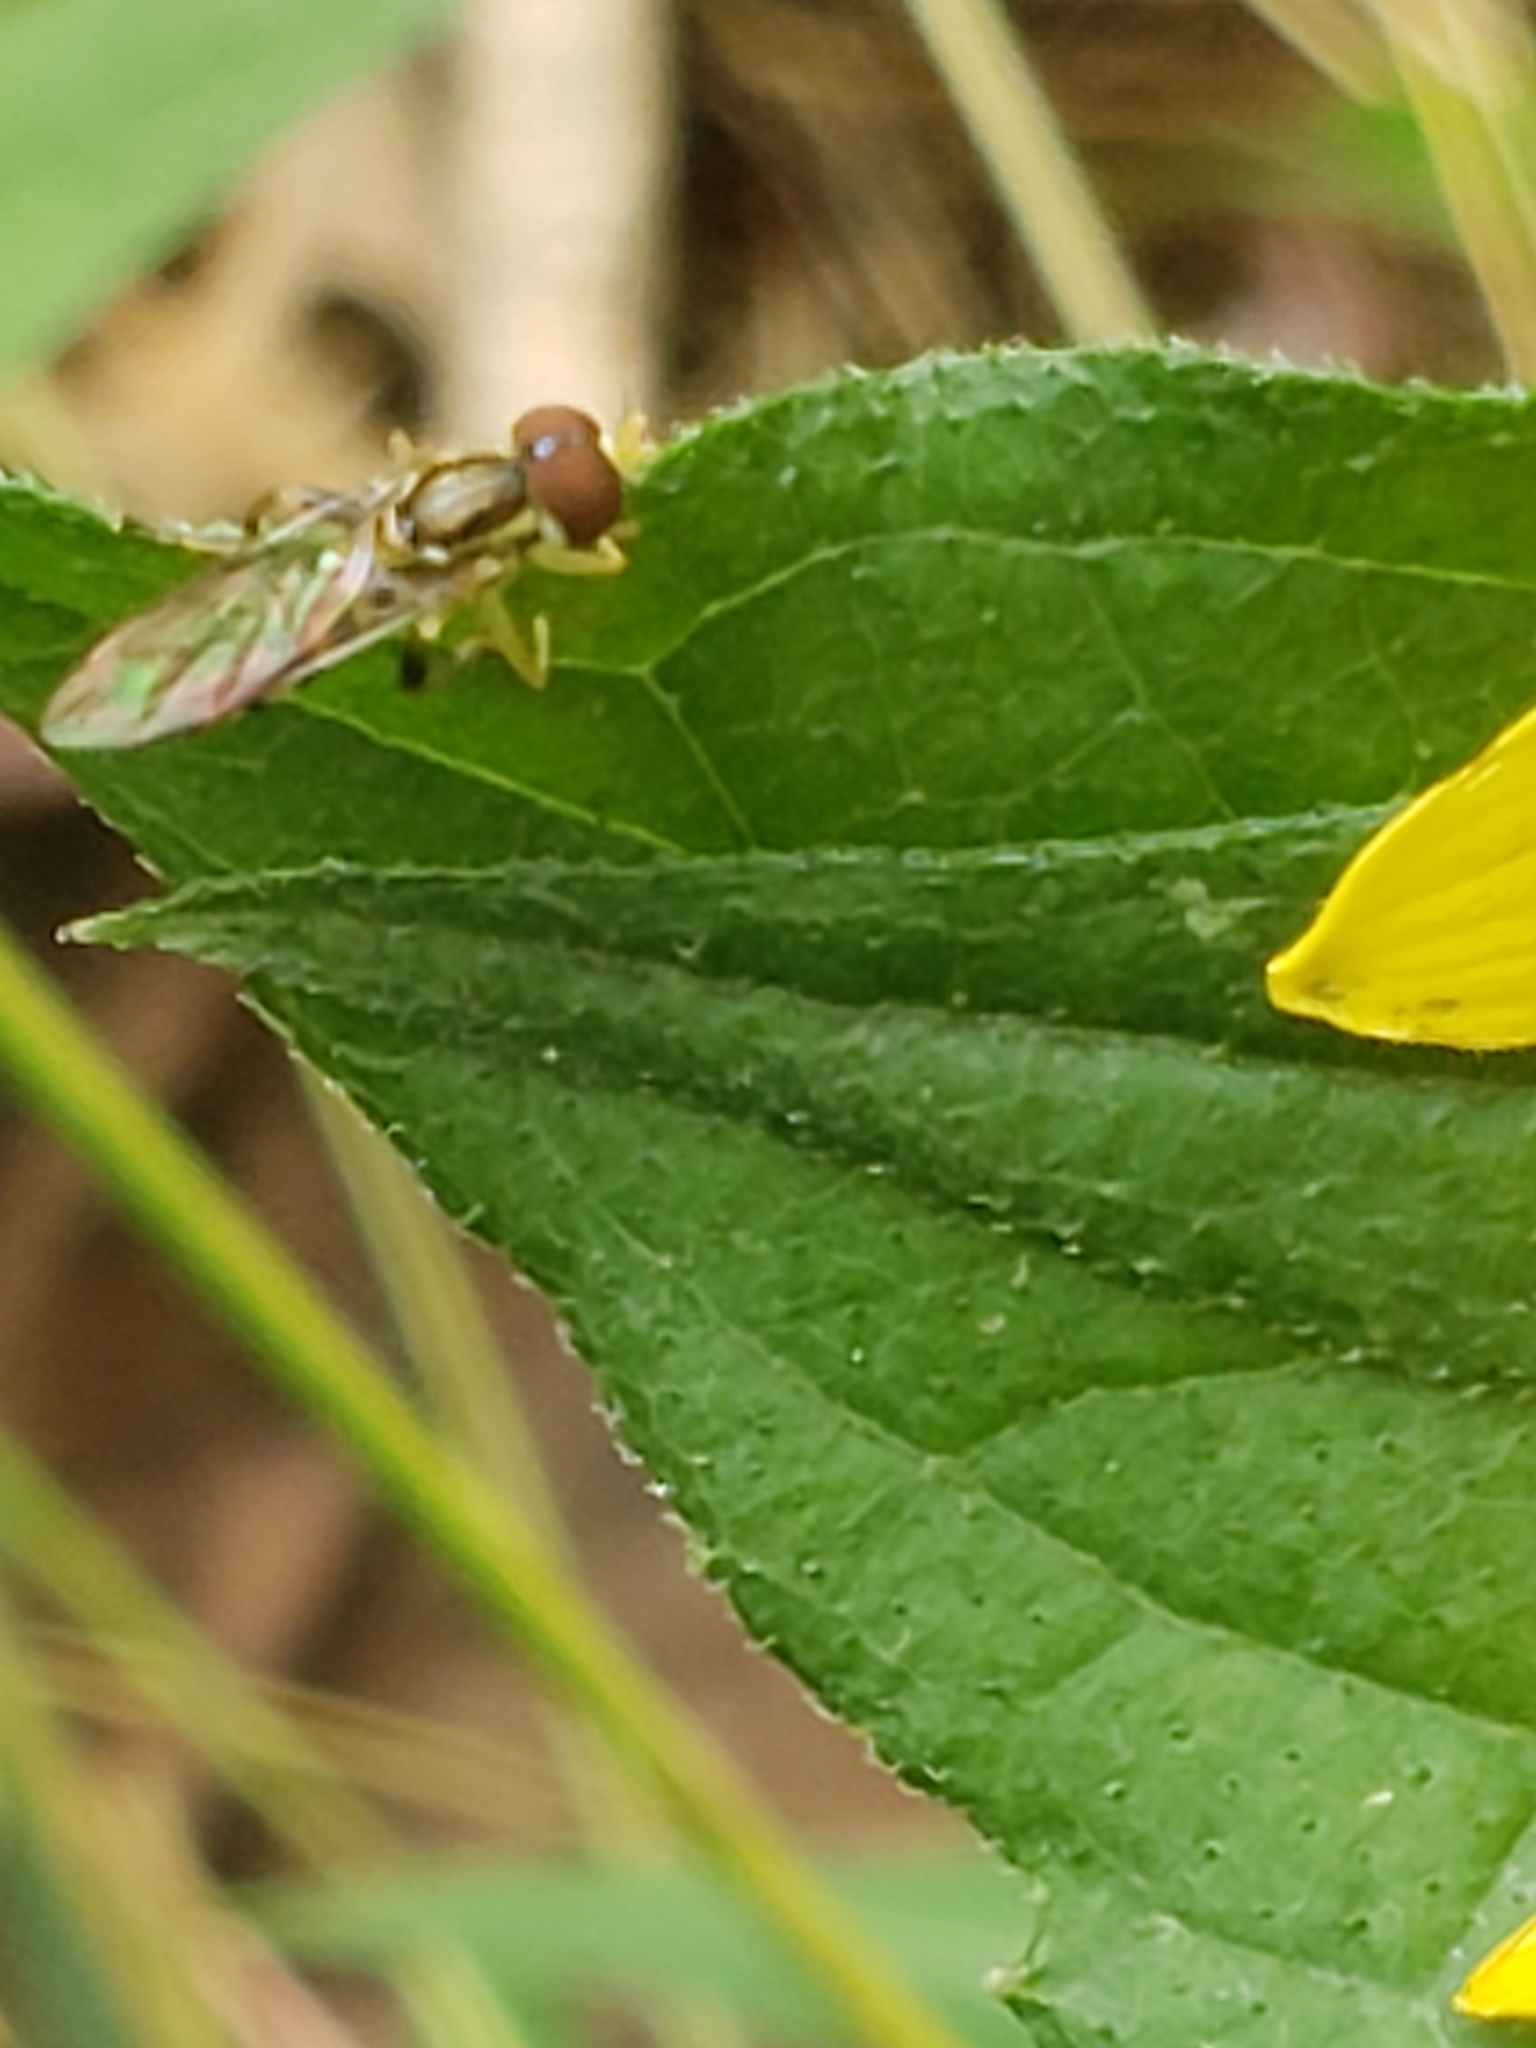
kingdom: Animalia
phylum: Arthropoda
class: Insecta
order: Diptera
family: Syrphidae
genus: Toxomerus
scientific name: Toxomerus geminatus
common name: Eastern calligrapher
